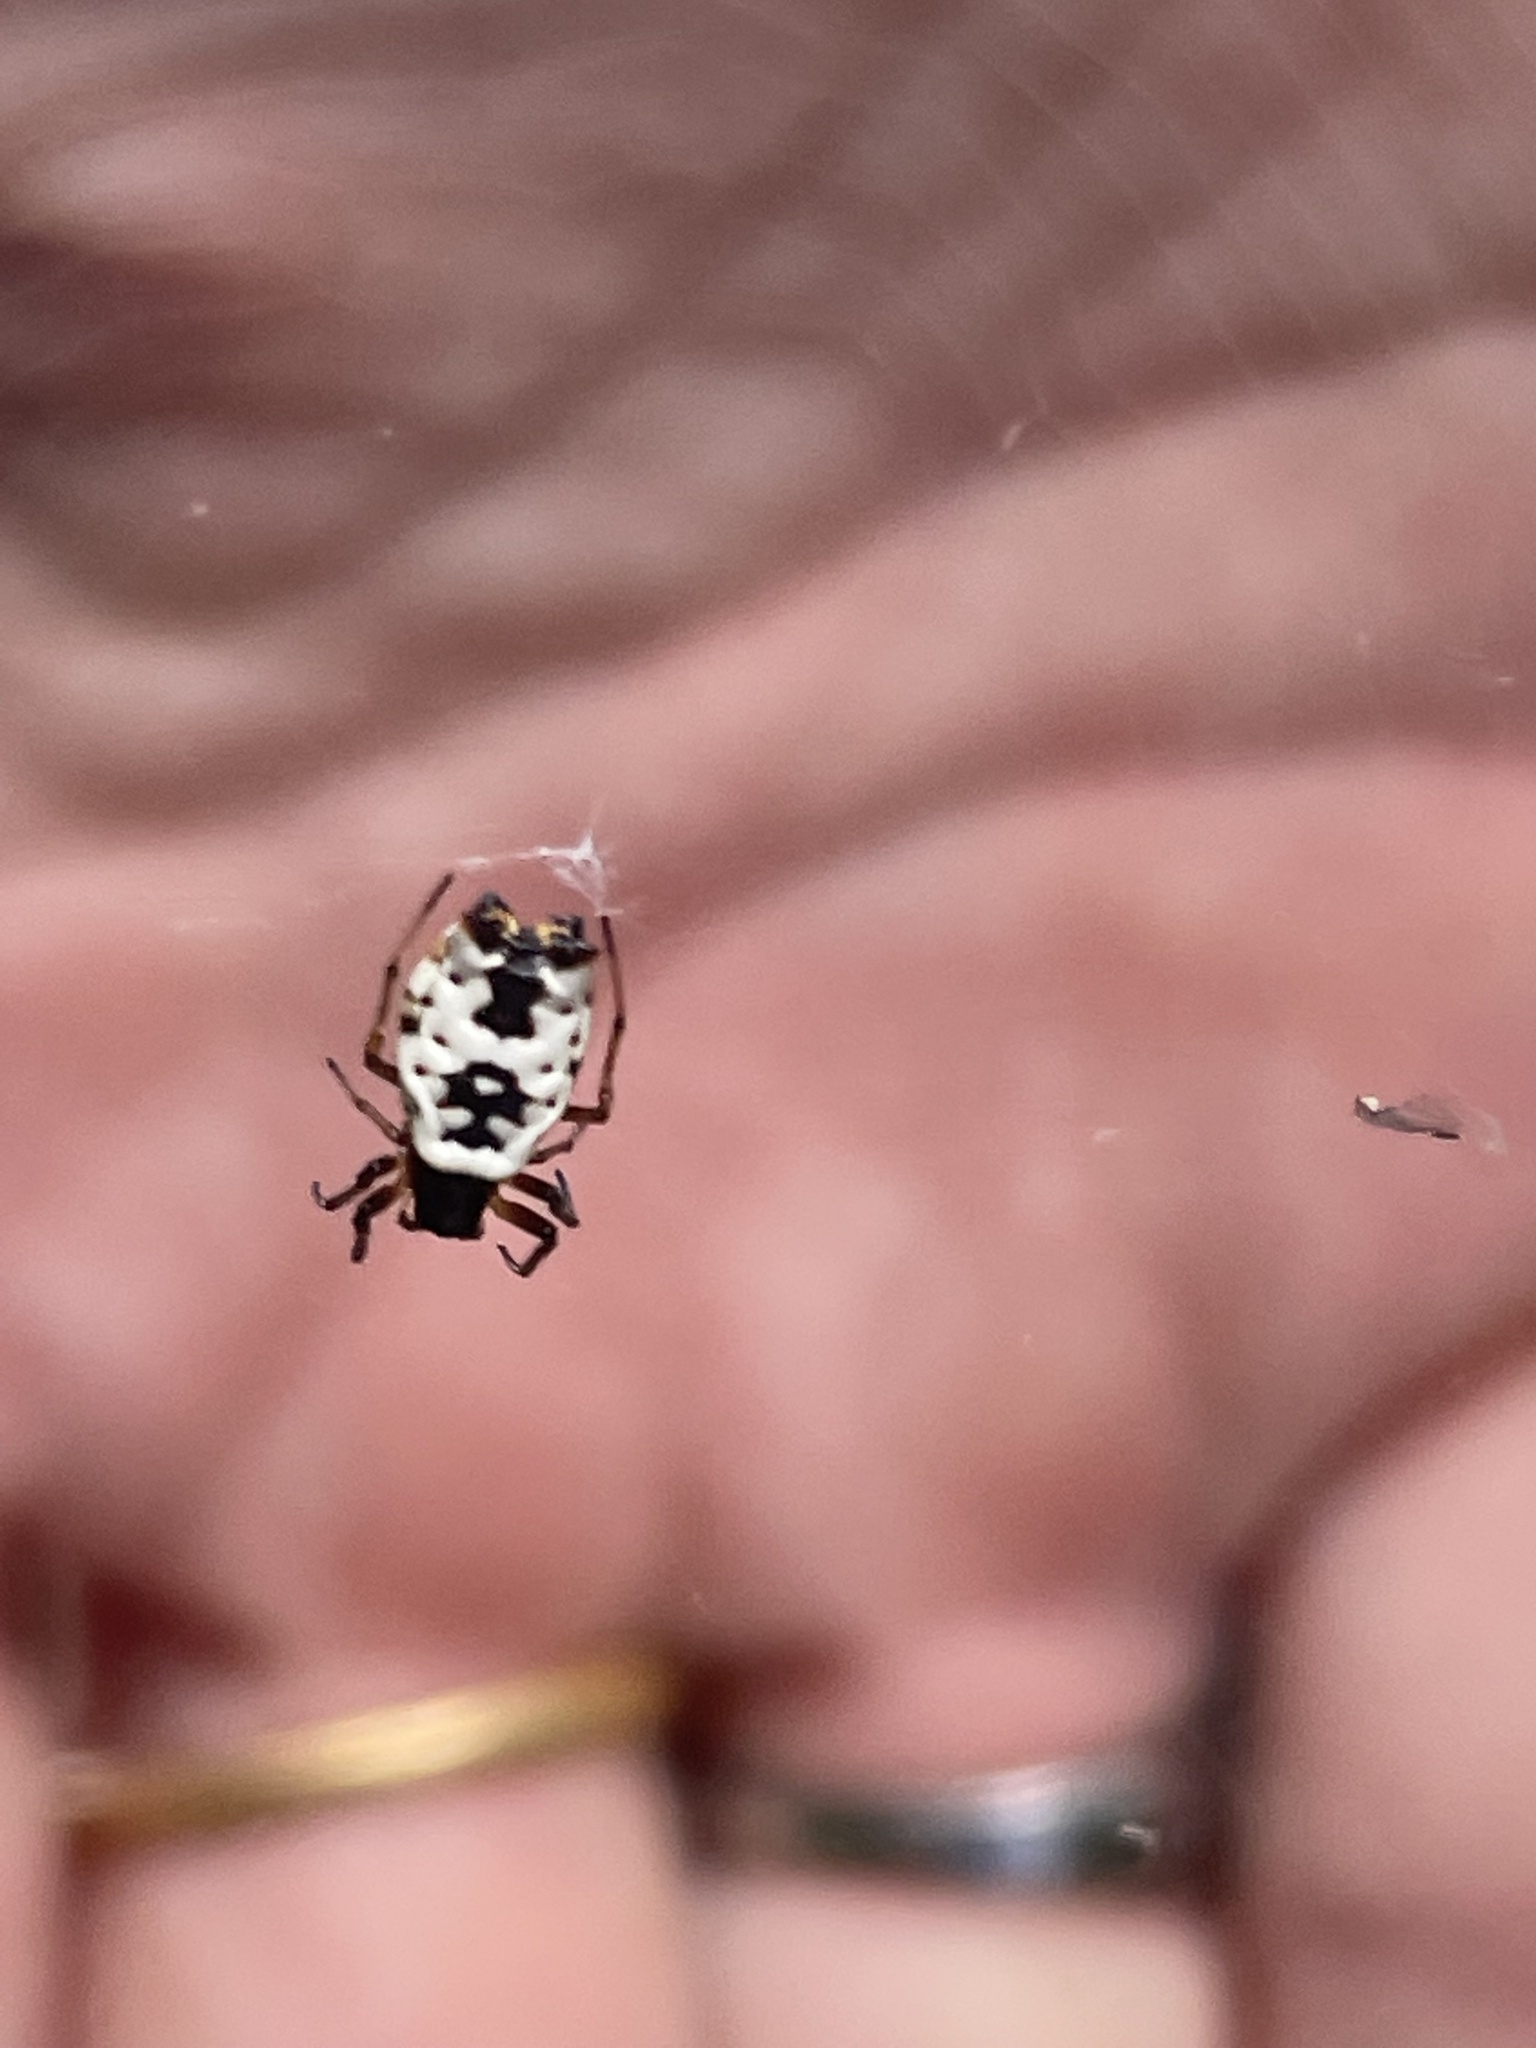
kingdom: Animalia
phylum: Arthropoda
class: Arachnida
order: Araneae
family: Araneidae
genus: Micrathena
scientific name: Micrathena mitrata
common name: Orb weavers
